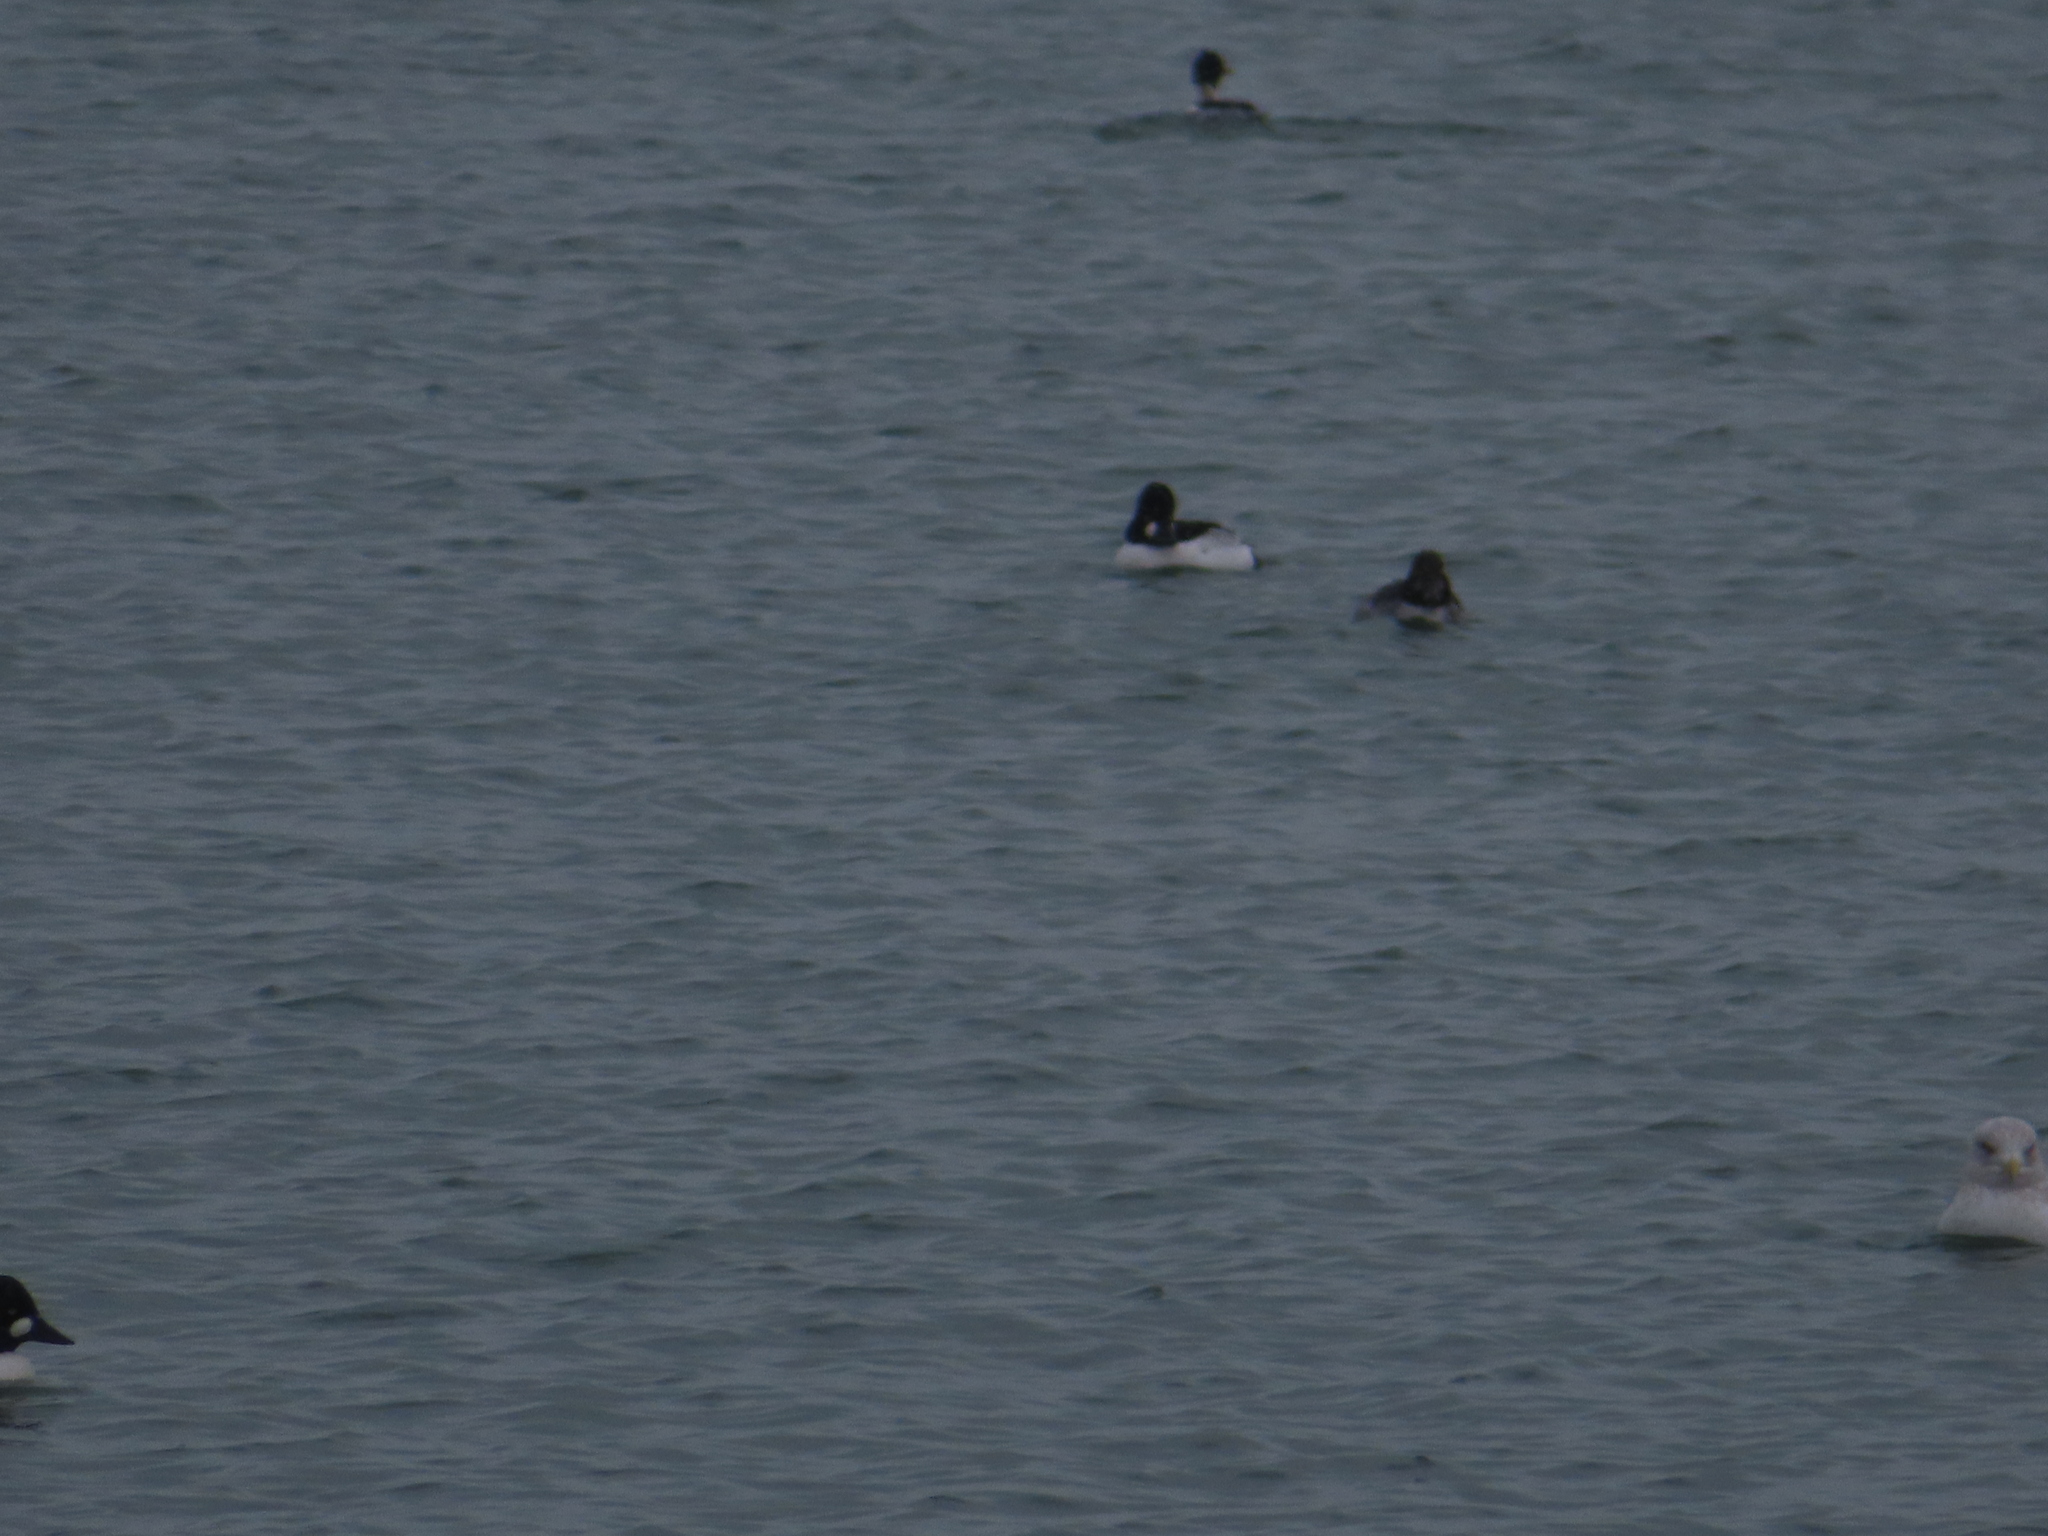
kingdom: Animalia
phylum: Chordata
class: Aves
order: Anseriformes
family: Anatidae
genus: Bucephala
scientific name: Bucephala clangula
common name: Common goldeneye
